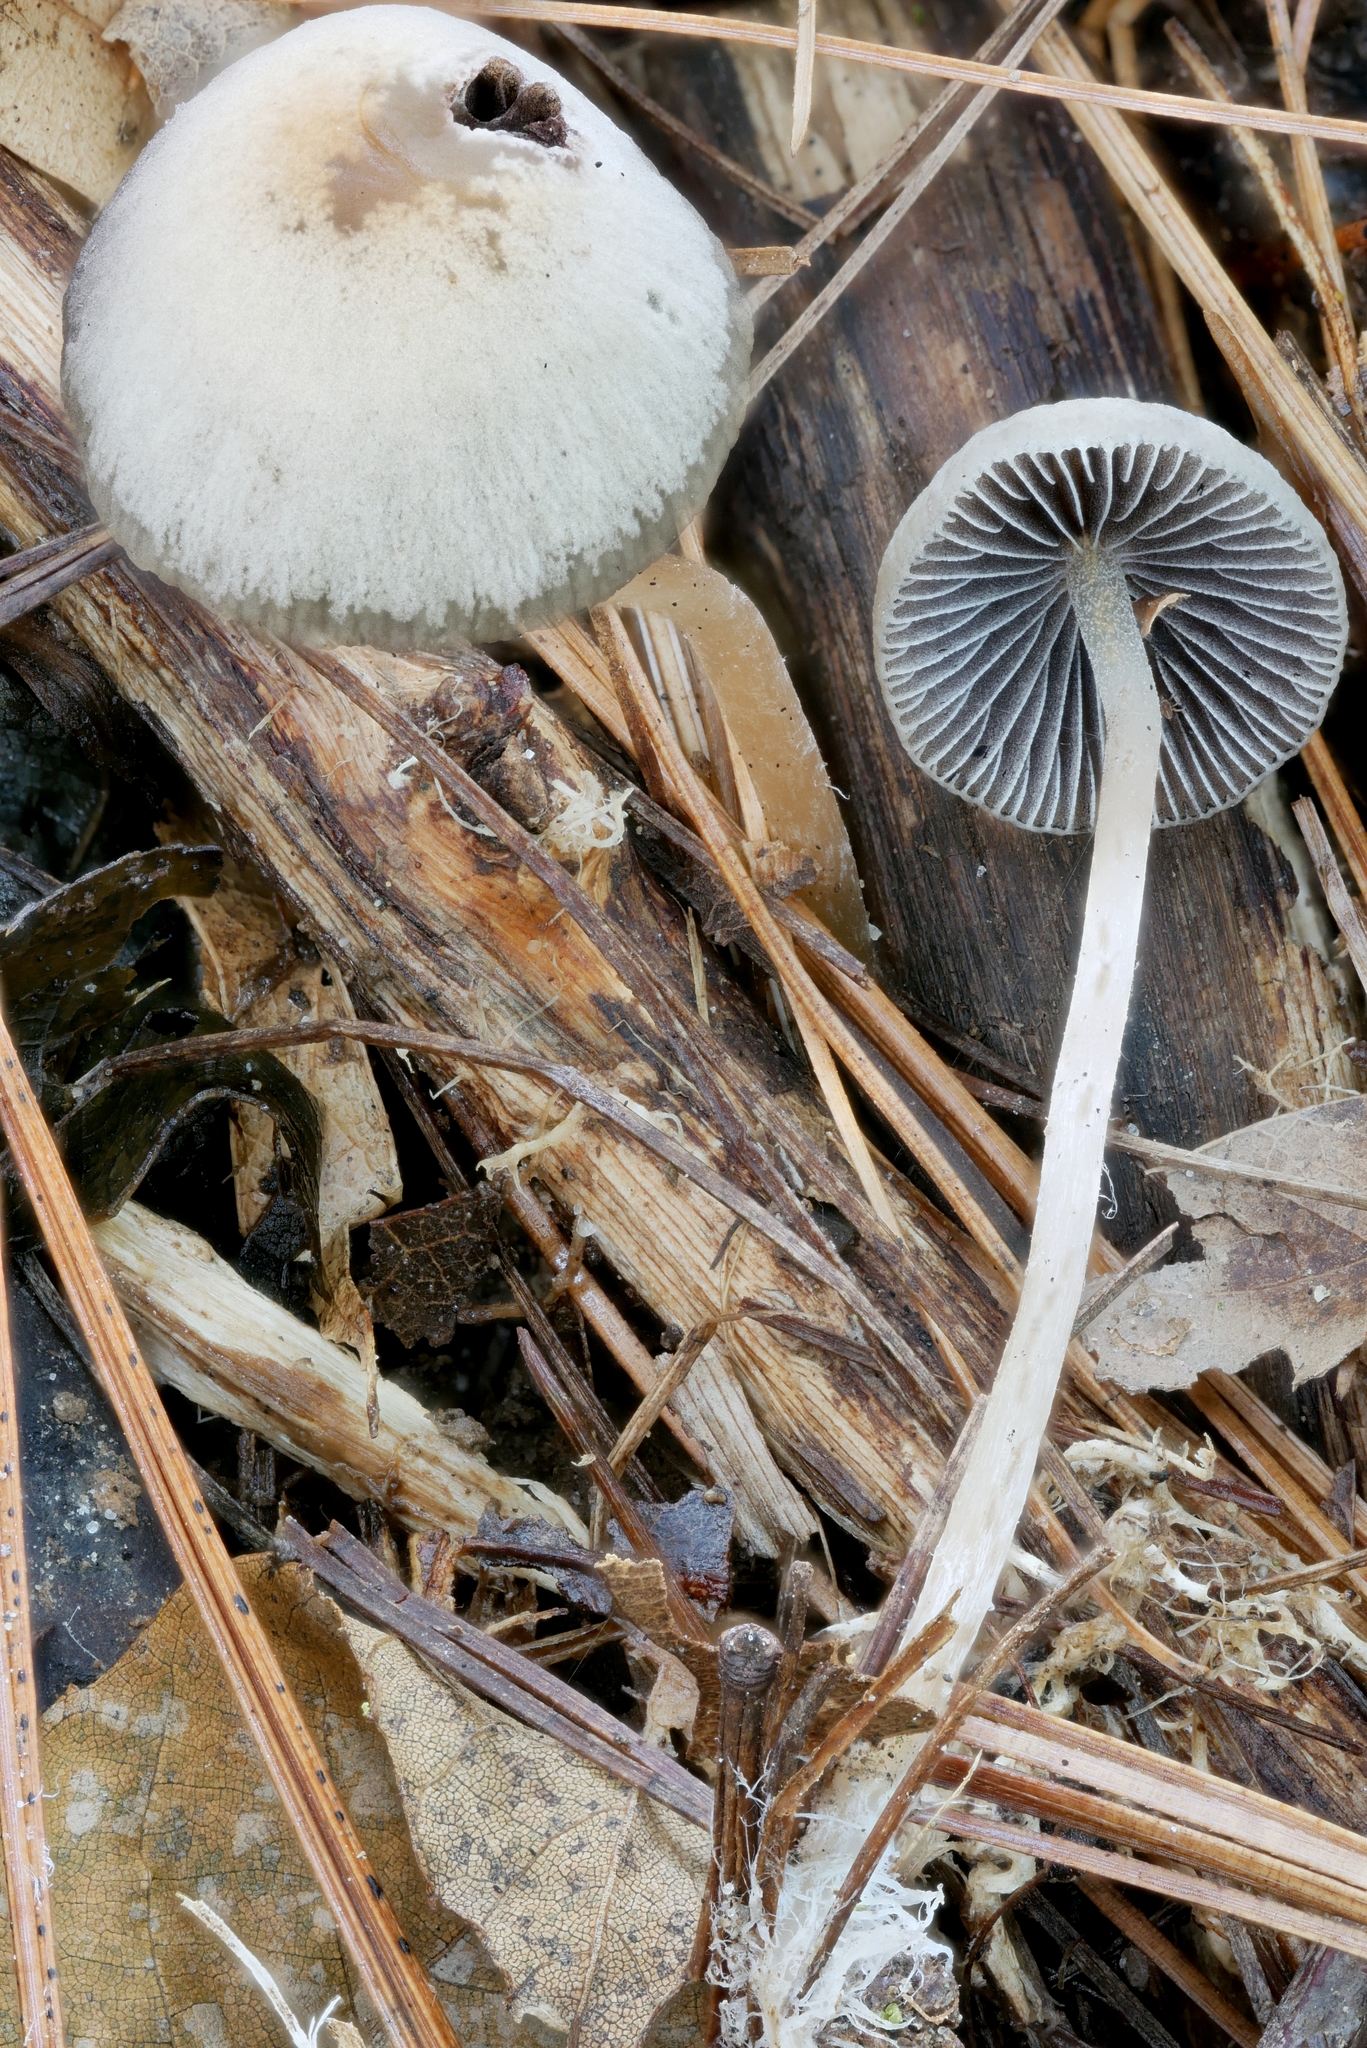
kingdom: Fungi
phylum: Basidiomycota
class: Agaricomycetes
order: Agaricales
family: Psathyrellaceae
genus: Psathyrella
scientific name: Psathyrella amarescens
